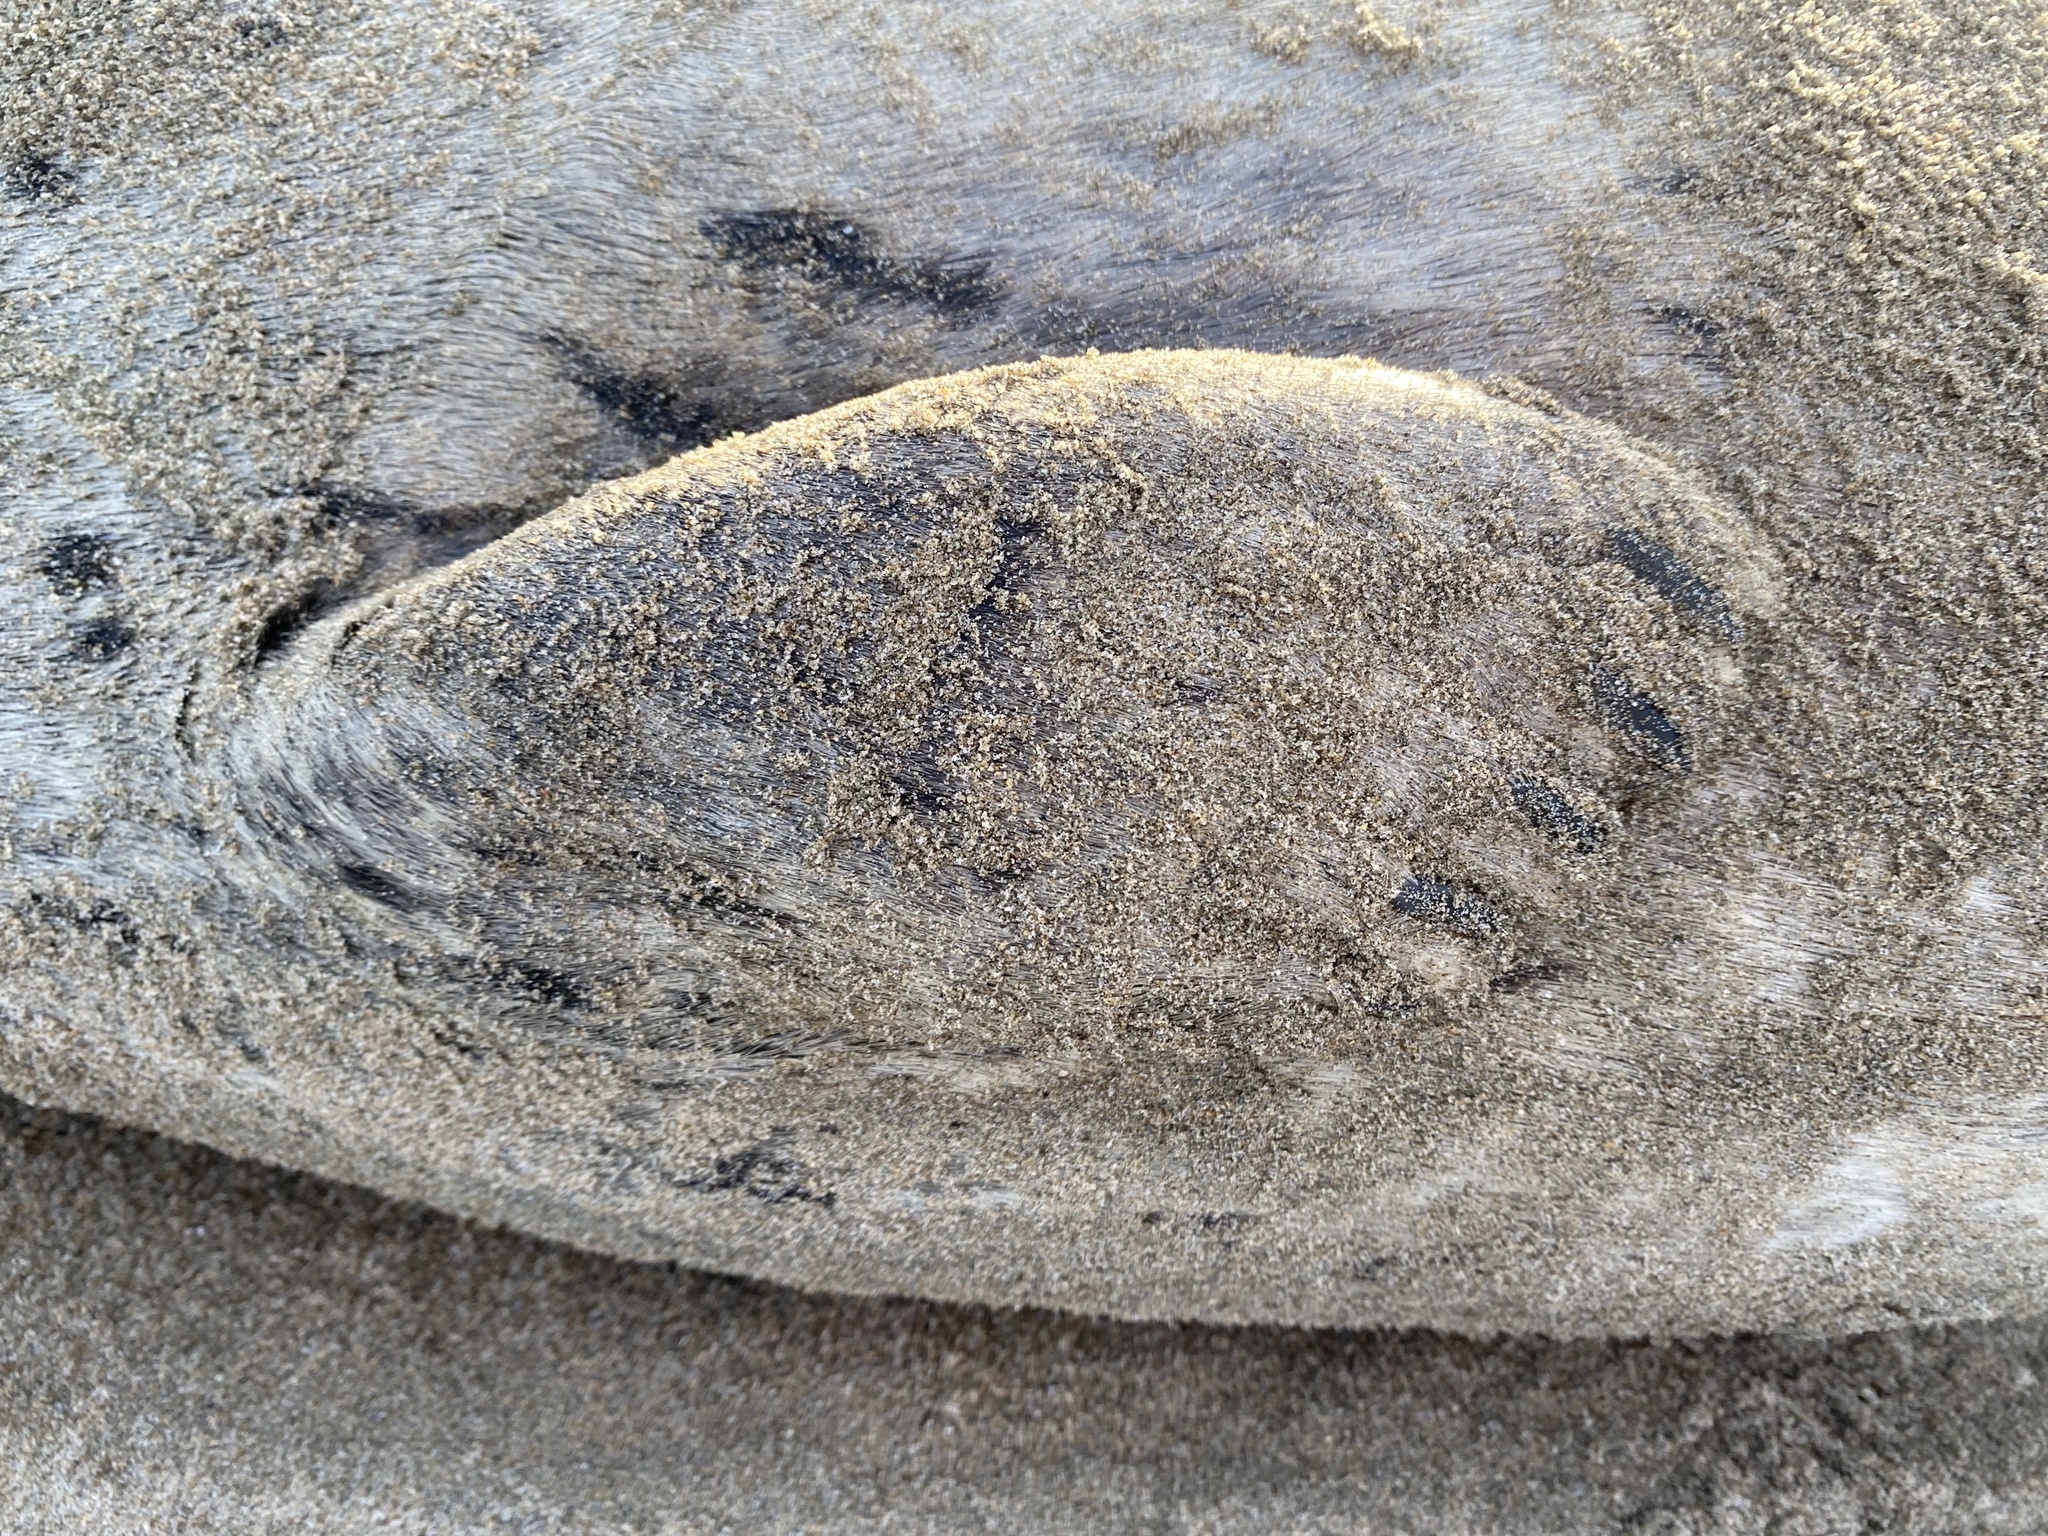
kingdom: Animalia
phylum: Chordata
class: Mammalia
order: Carnivora
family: Phocidae
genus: Phoca
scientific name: Phoca vitulina
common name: Harbor seal
